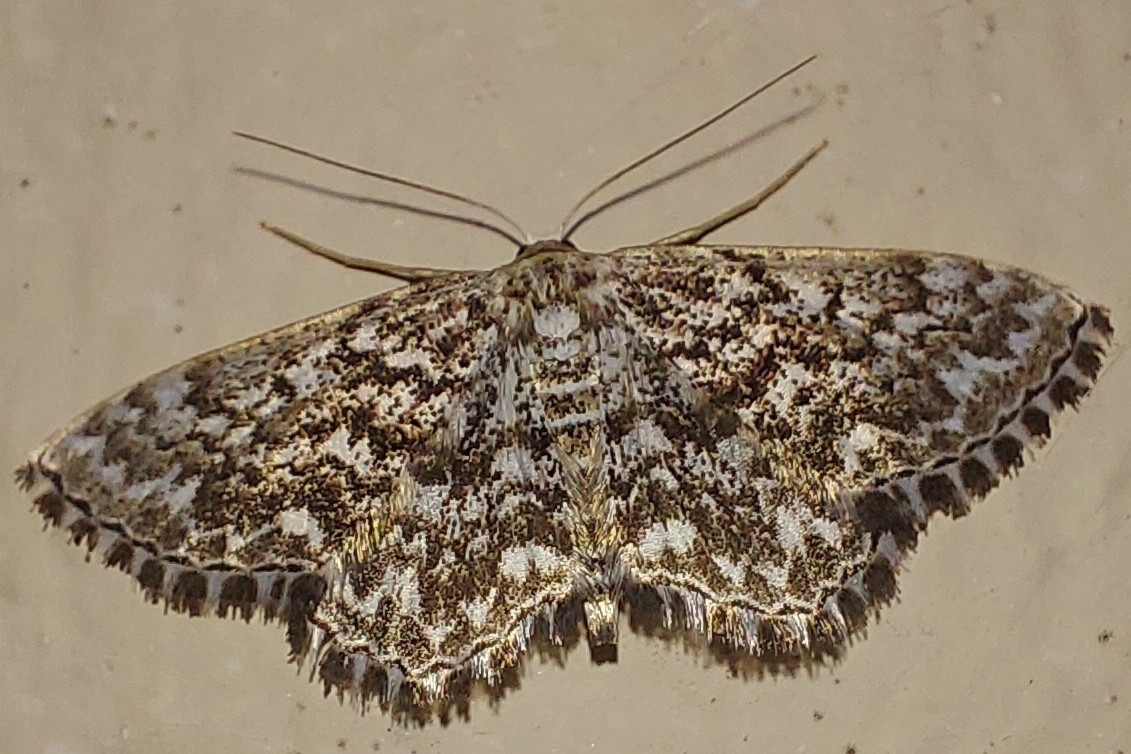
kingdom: Animalia
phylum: Arthropoda
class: Insecta
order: Lepidoptera
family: Geometridae
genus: Scopula
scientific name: Scopula inscriptata
